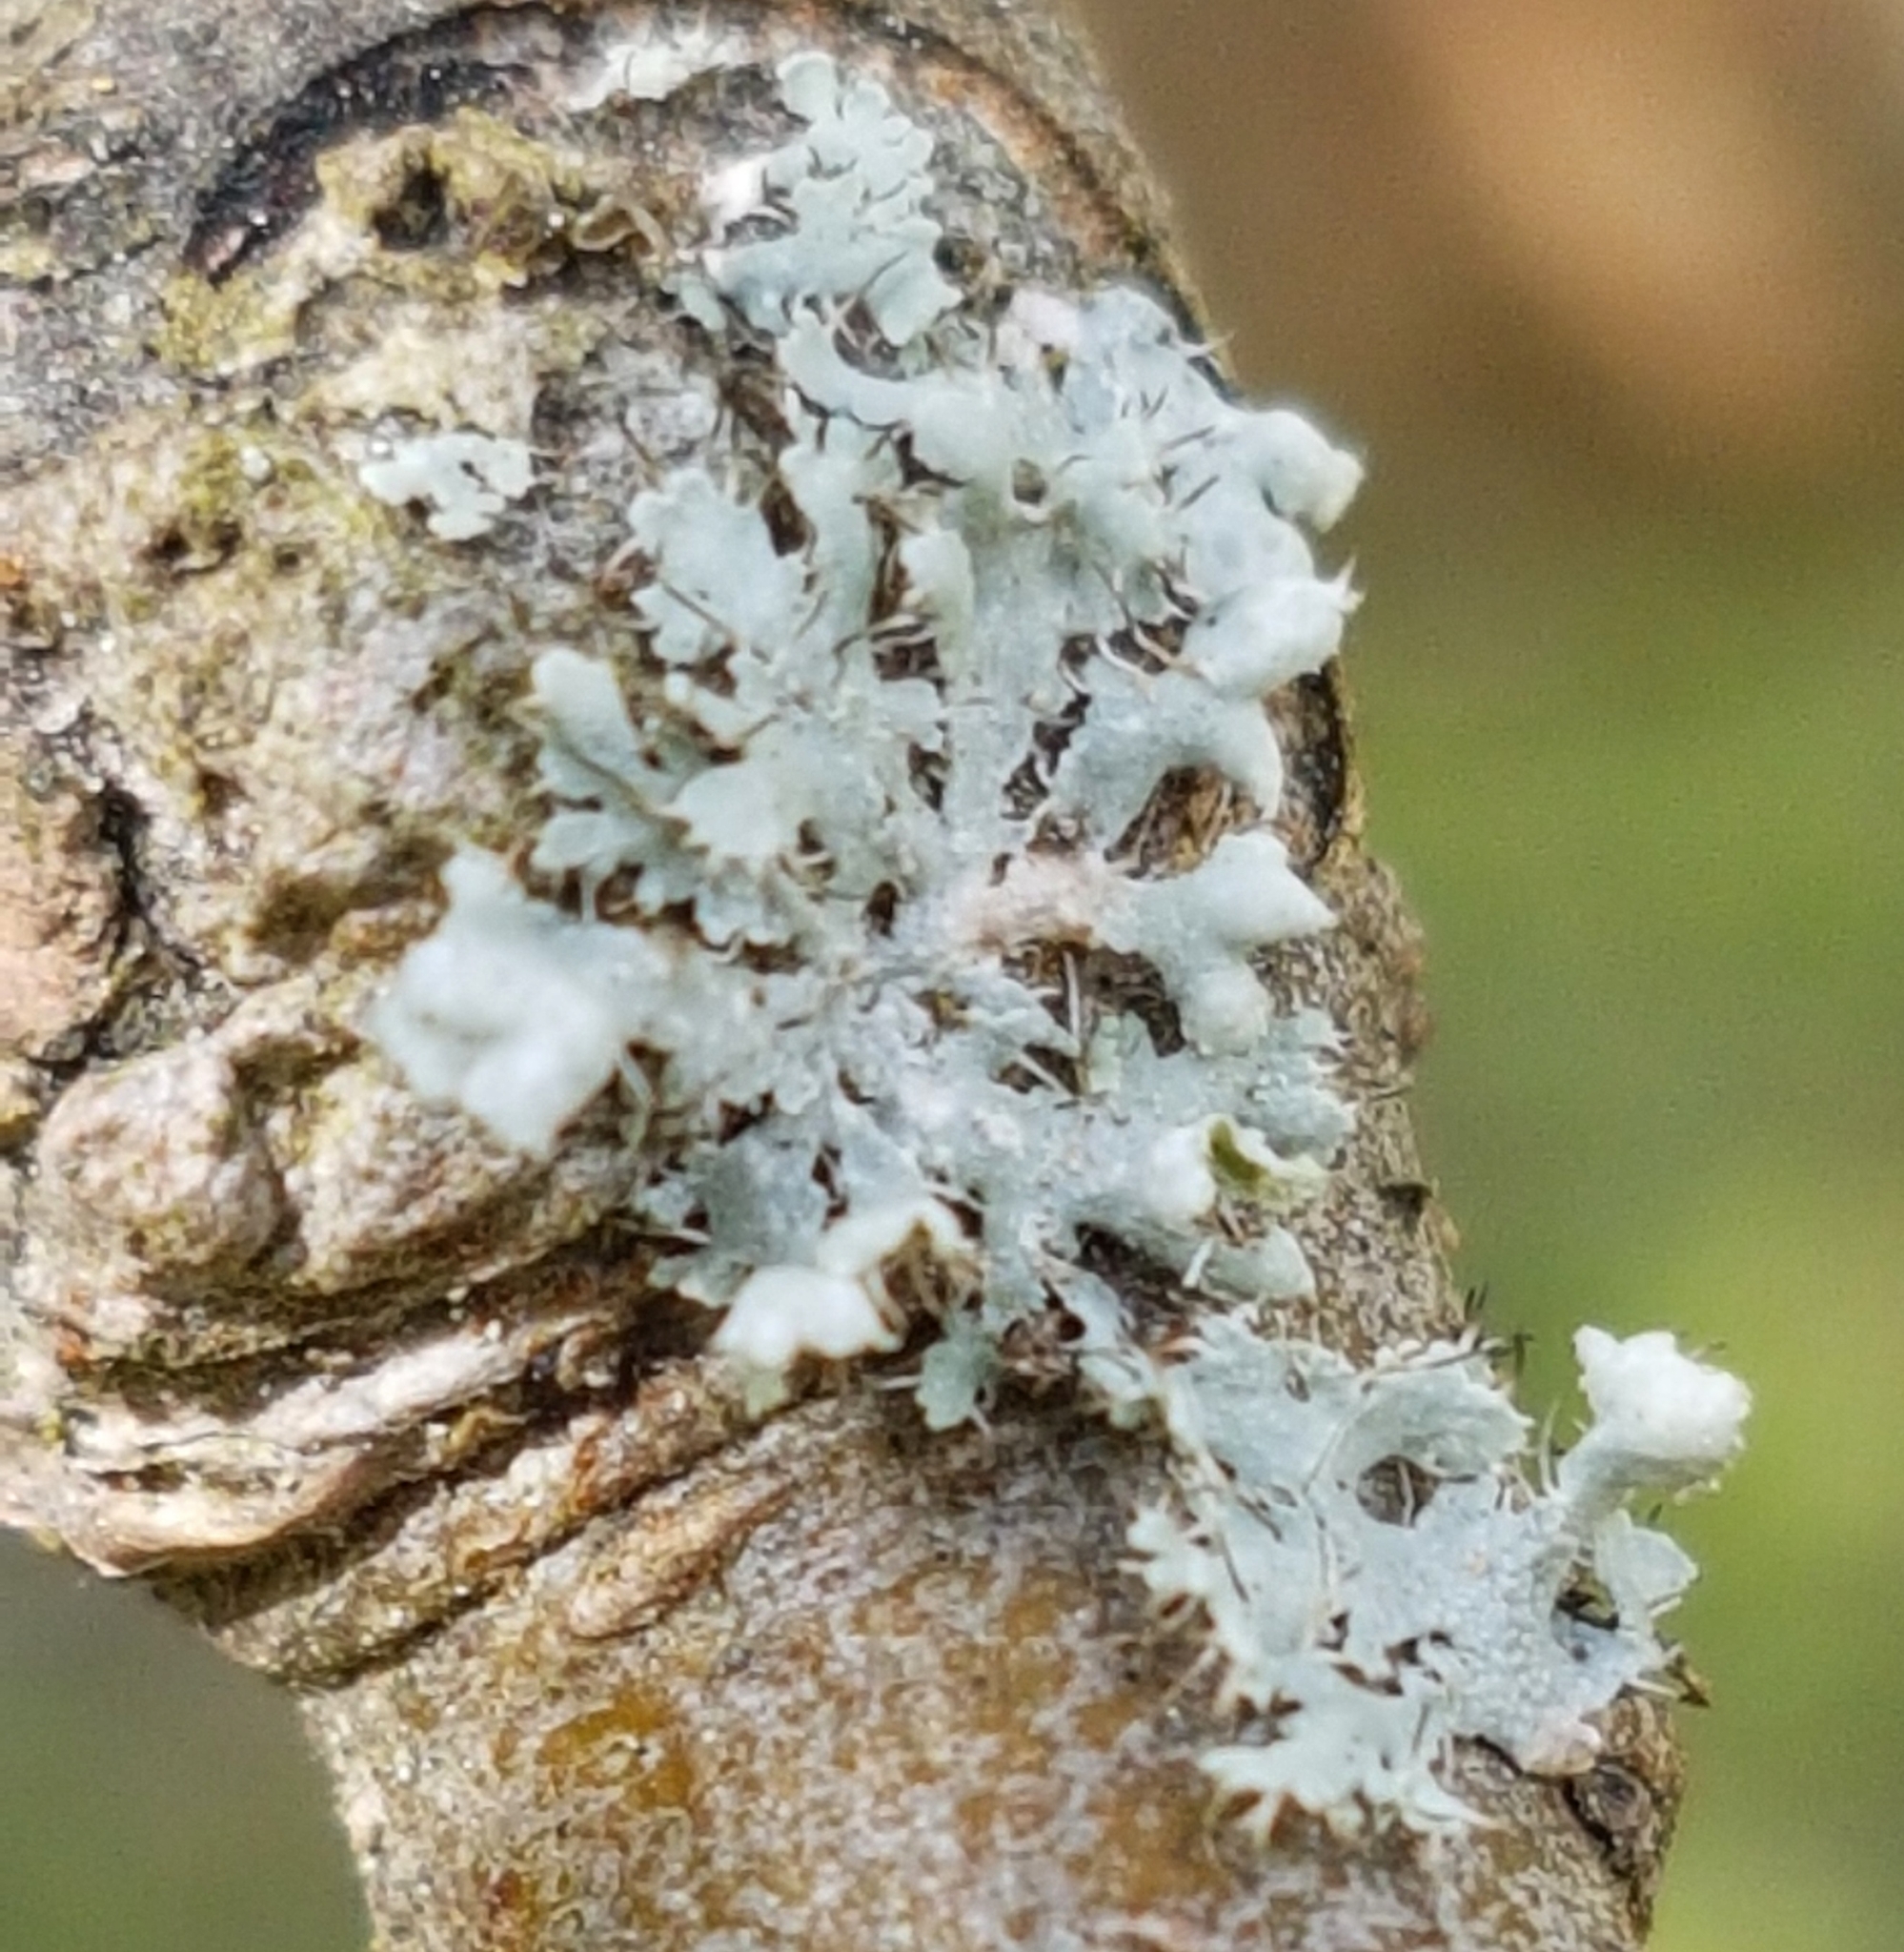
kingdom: Fungi
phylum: Ascomycota
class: Lecanoromycetes
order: Caliciales
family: Physciaceae
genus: Physcia
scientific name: Physcia adscendens
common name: Hooded rosette lichen
